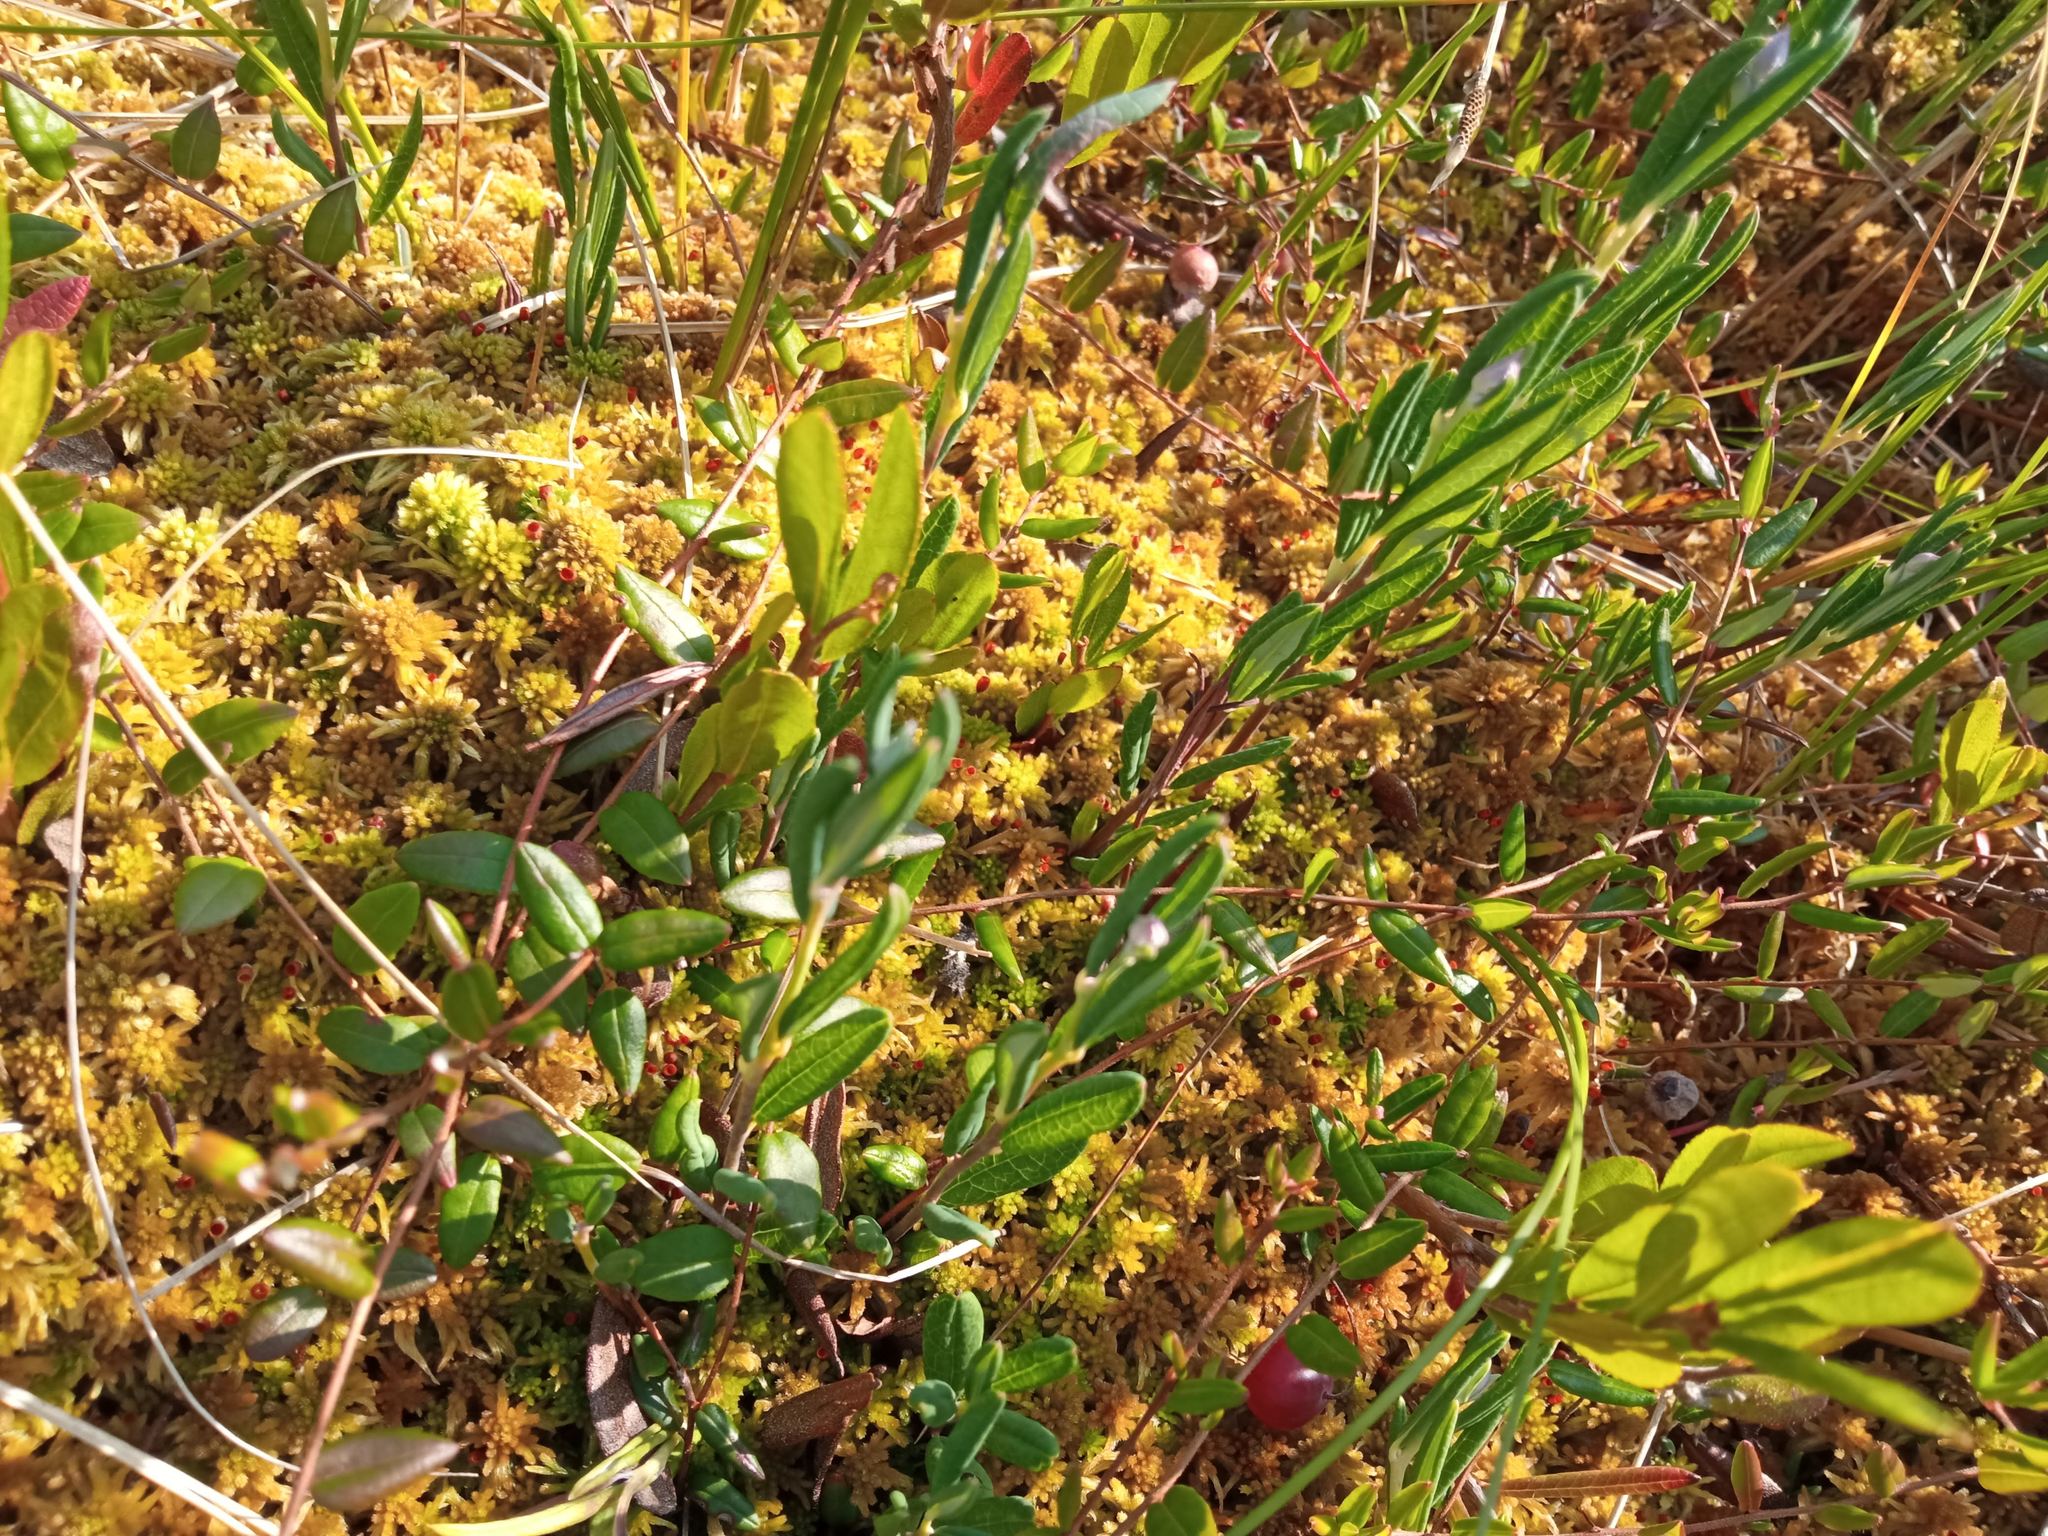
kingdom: Plantae
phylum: Tracheophyta
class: Magnoliopsida
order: Ericales
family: Ericaceae
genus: Andromeda
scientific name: Andromeda polifolia
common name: Bog-rosemary
